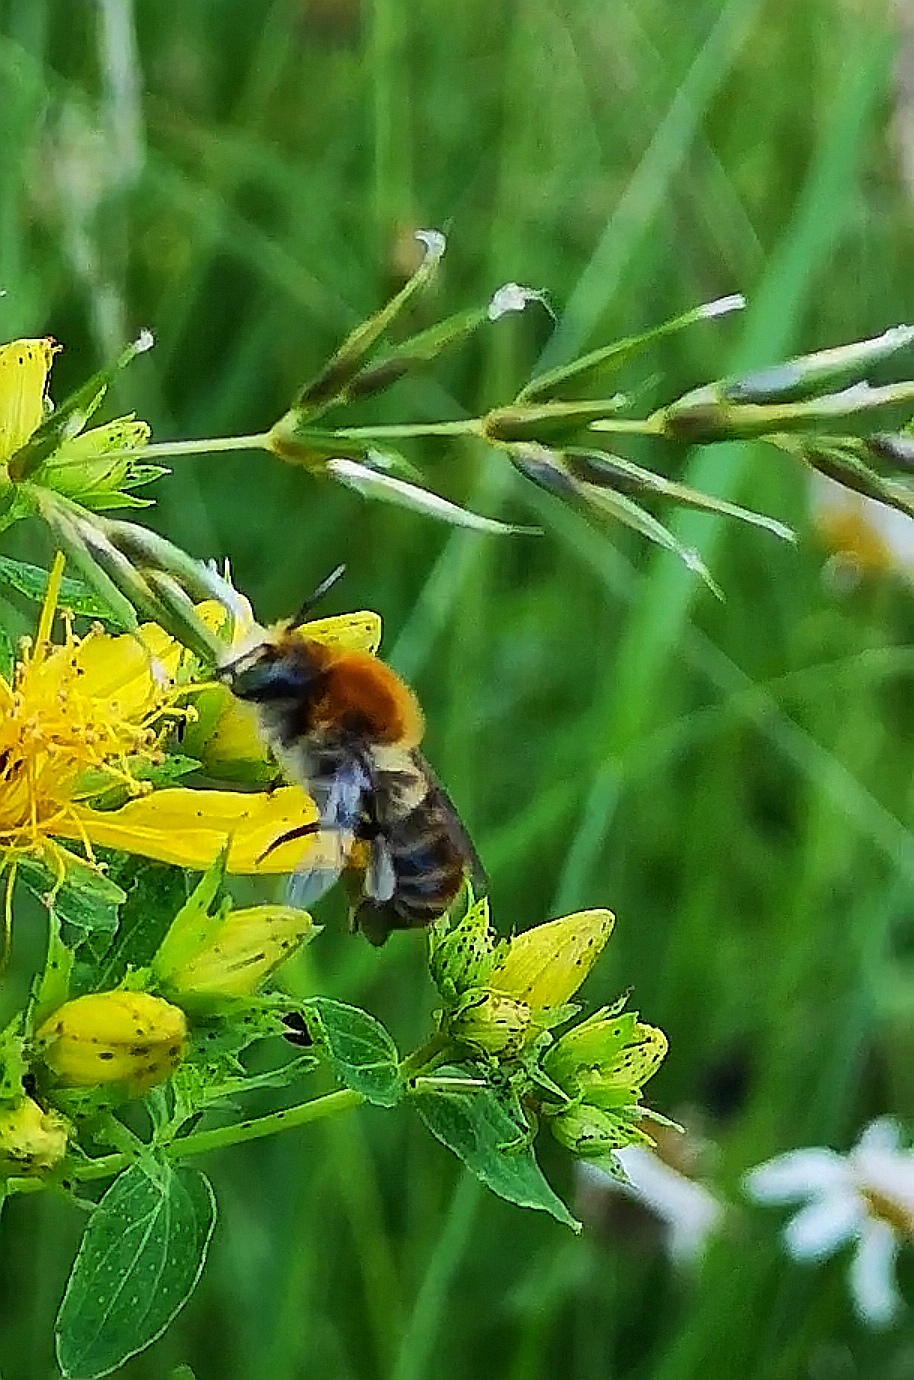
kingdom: Animalia
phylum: Arthropoda
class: Insecta
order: Hymenoptera
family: Megachilidae
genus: Trachusa
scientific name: Trachusa byssina
